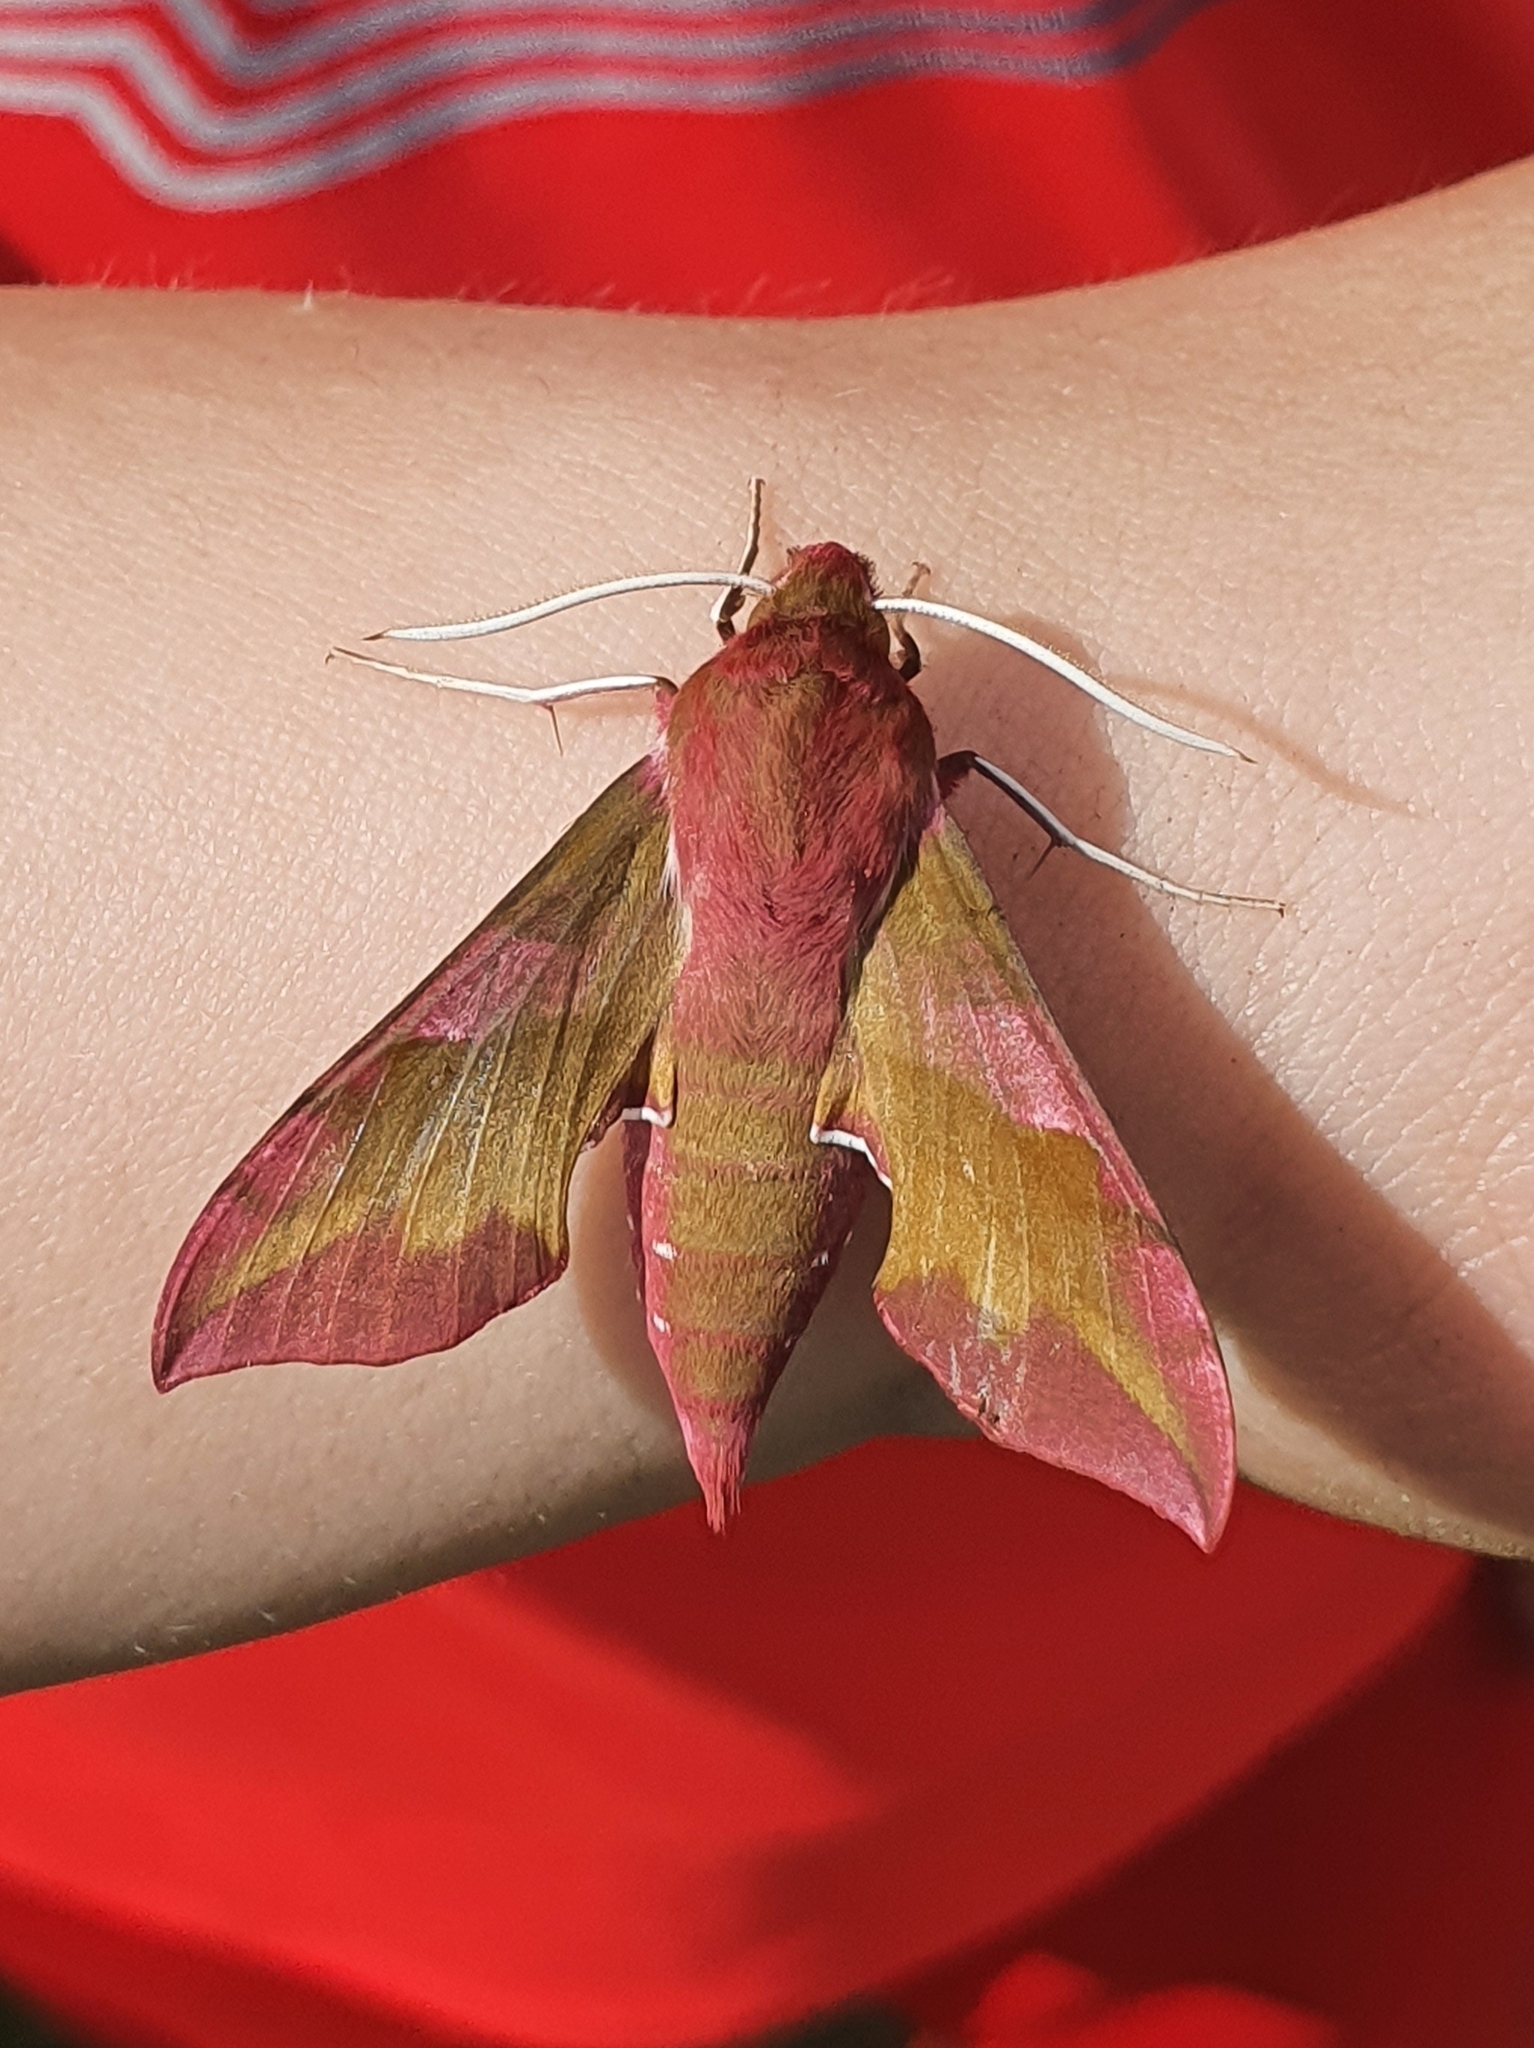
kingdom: Animalia
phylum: Arthropoda
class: Insecta
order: Lepidoptera
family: Sphingidae
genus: Deilephila
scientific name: Deilephila porcellus
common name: Small elephant hawk-moth
